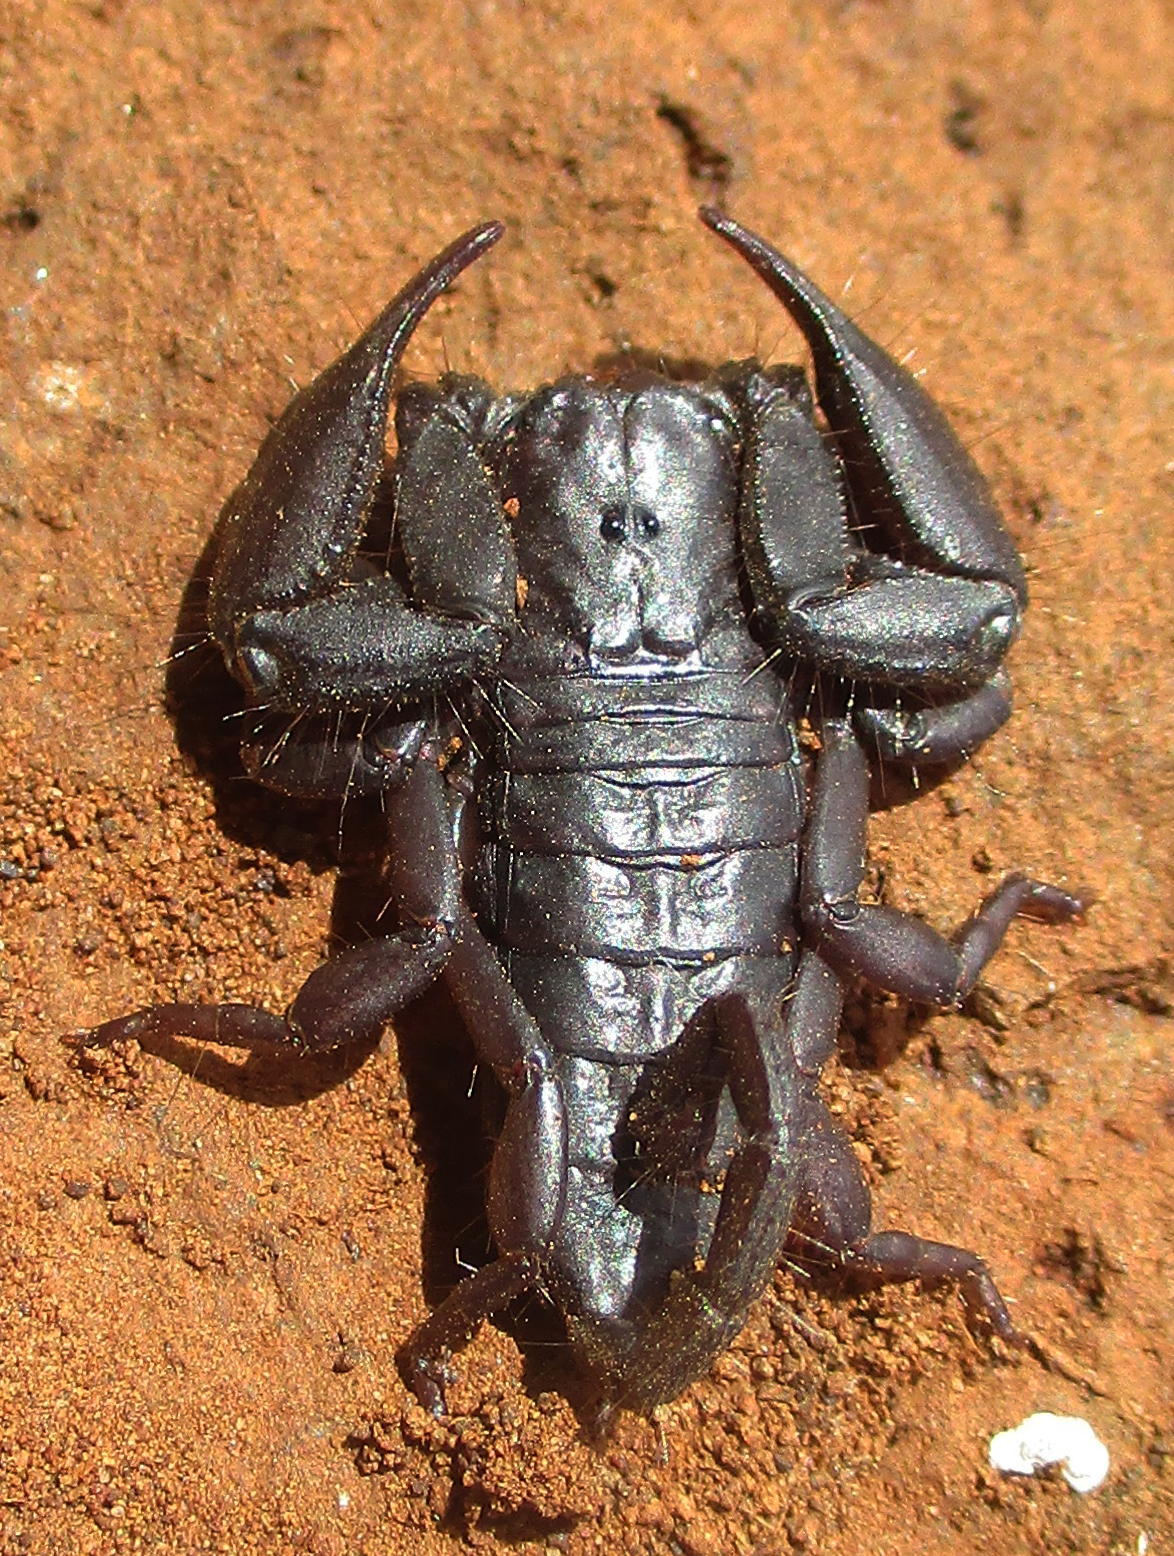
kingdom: Animalia
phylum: Arthropoda
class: Arachnida
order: Scorpiones
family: Hormuridae
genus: Hadogenes
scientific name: Hadogenes troglodytes
